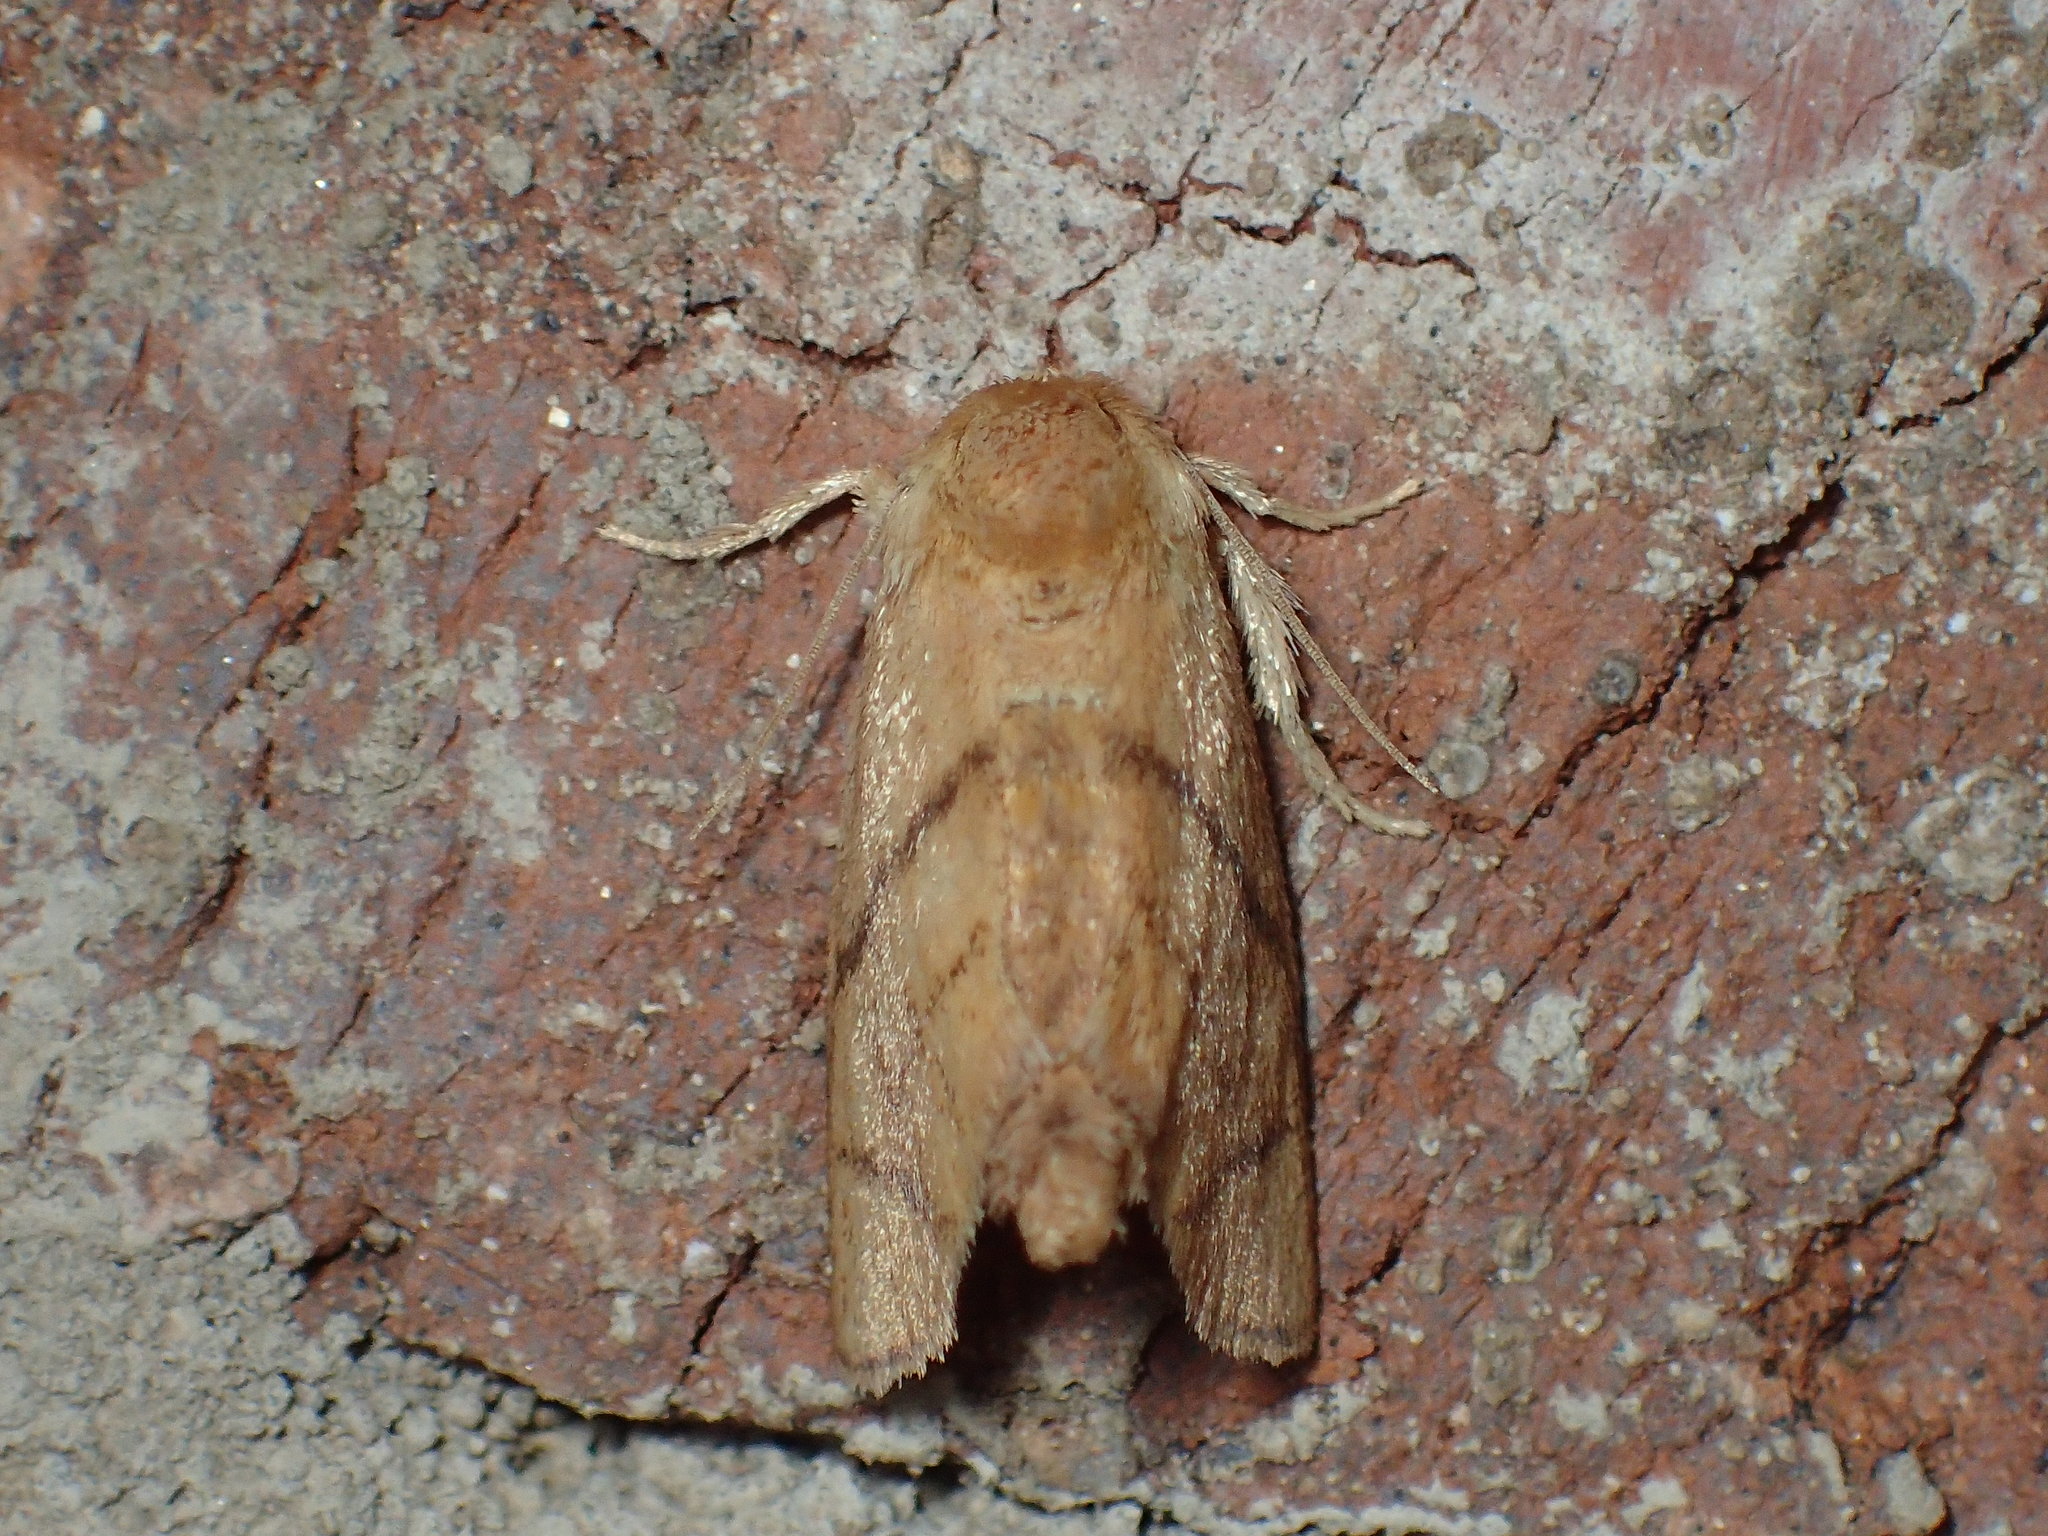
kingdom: Animalia
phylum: Arthropoda
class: Insecta
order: Lepidoptera
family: Limacodidae
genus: Apoda
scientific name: Apoda y-inversa
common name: Yellow-collared slug moth
